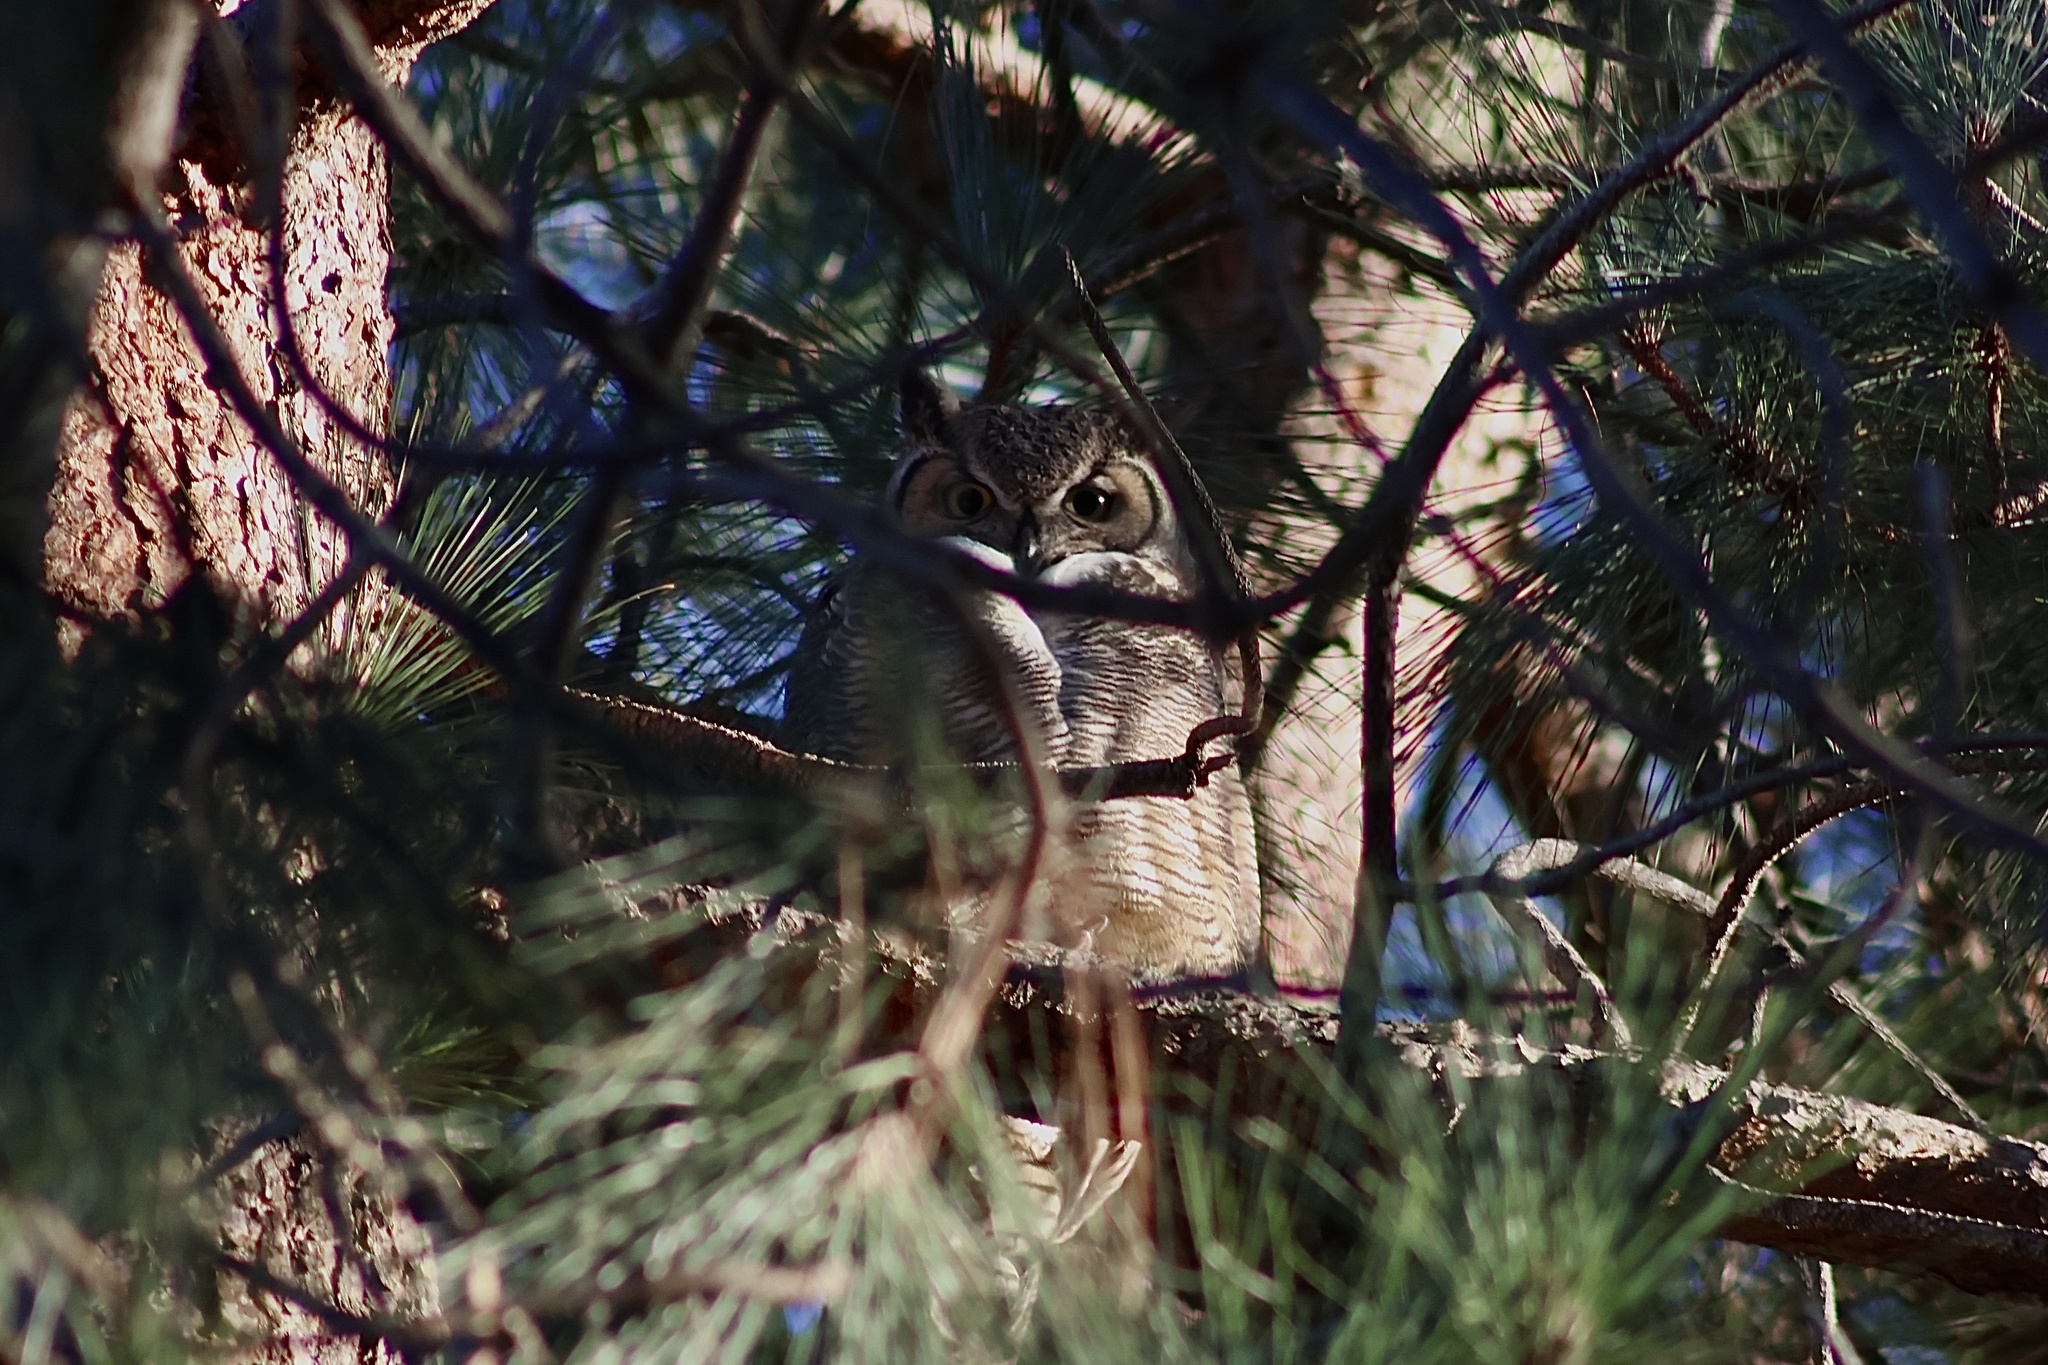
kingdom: Animalia
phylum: Chordata
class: Aves
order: Strigiformes
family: Strigidae
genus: Bubo
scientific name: Bubo virginianus
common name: Great horned owl
